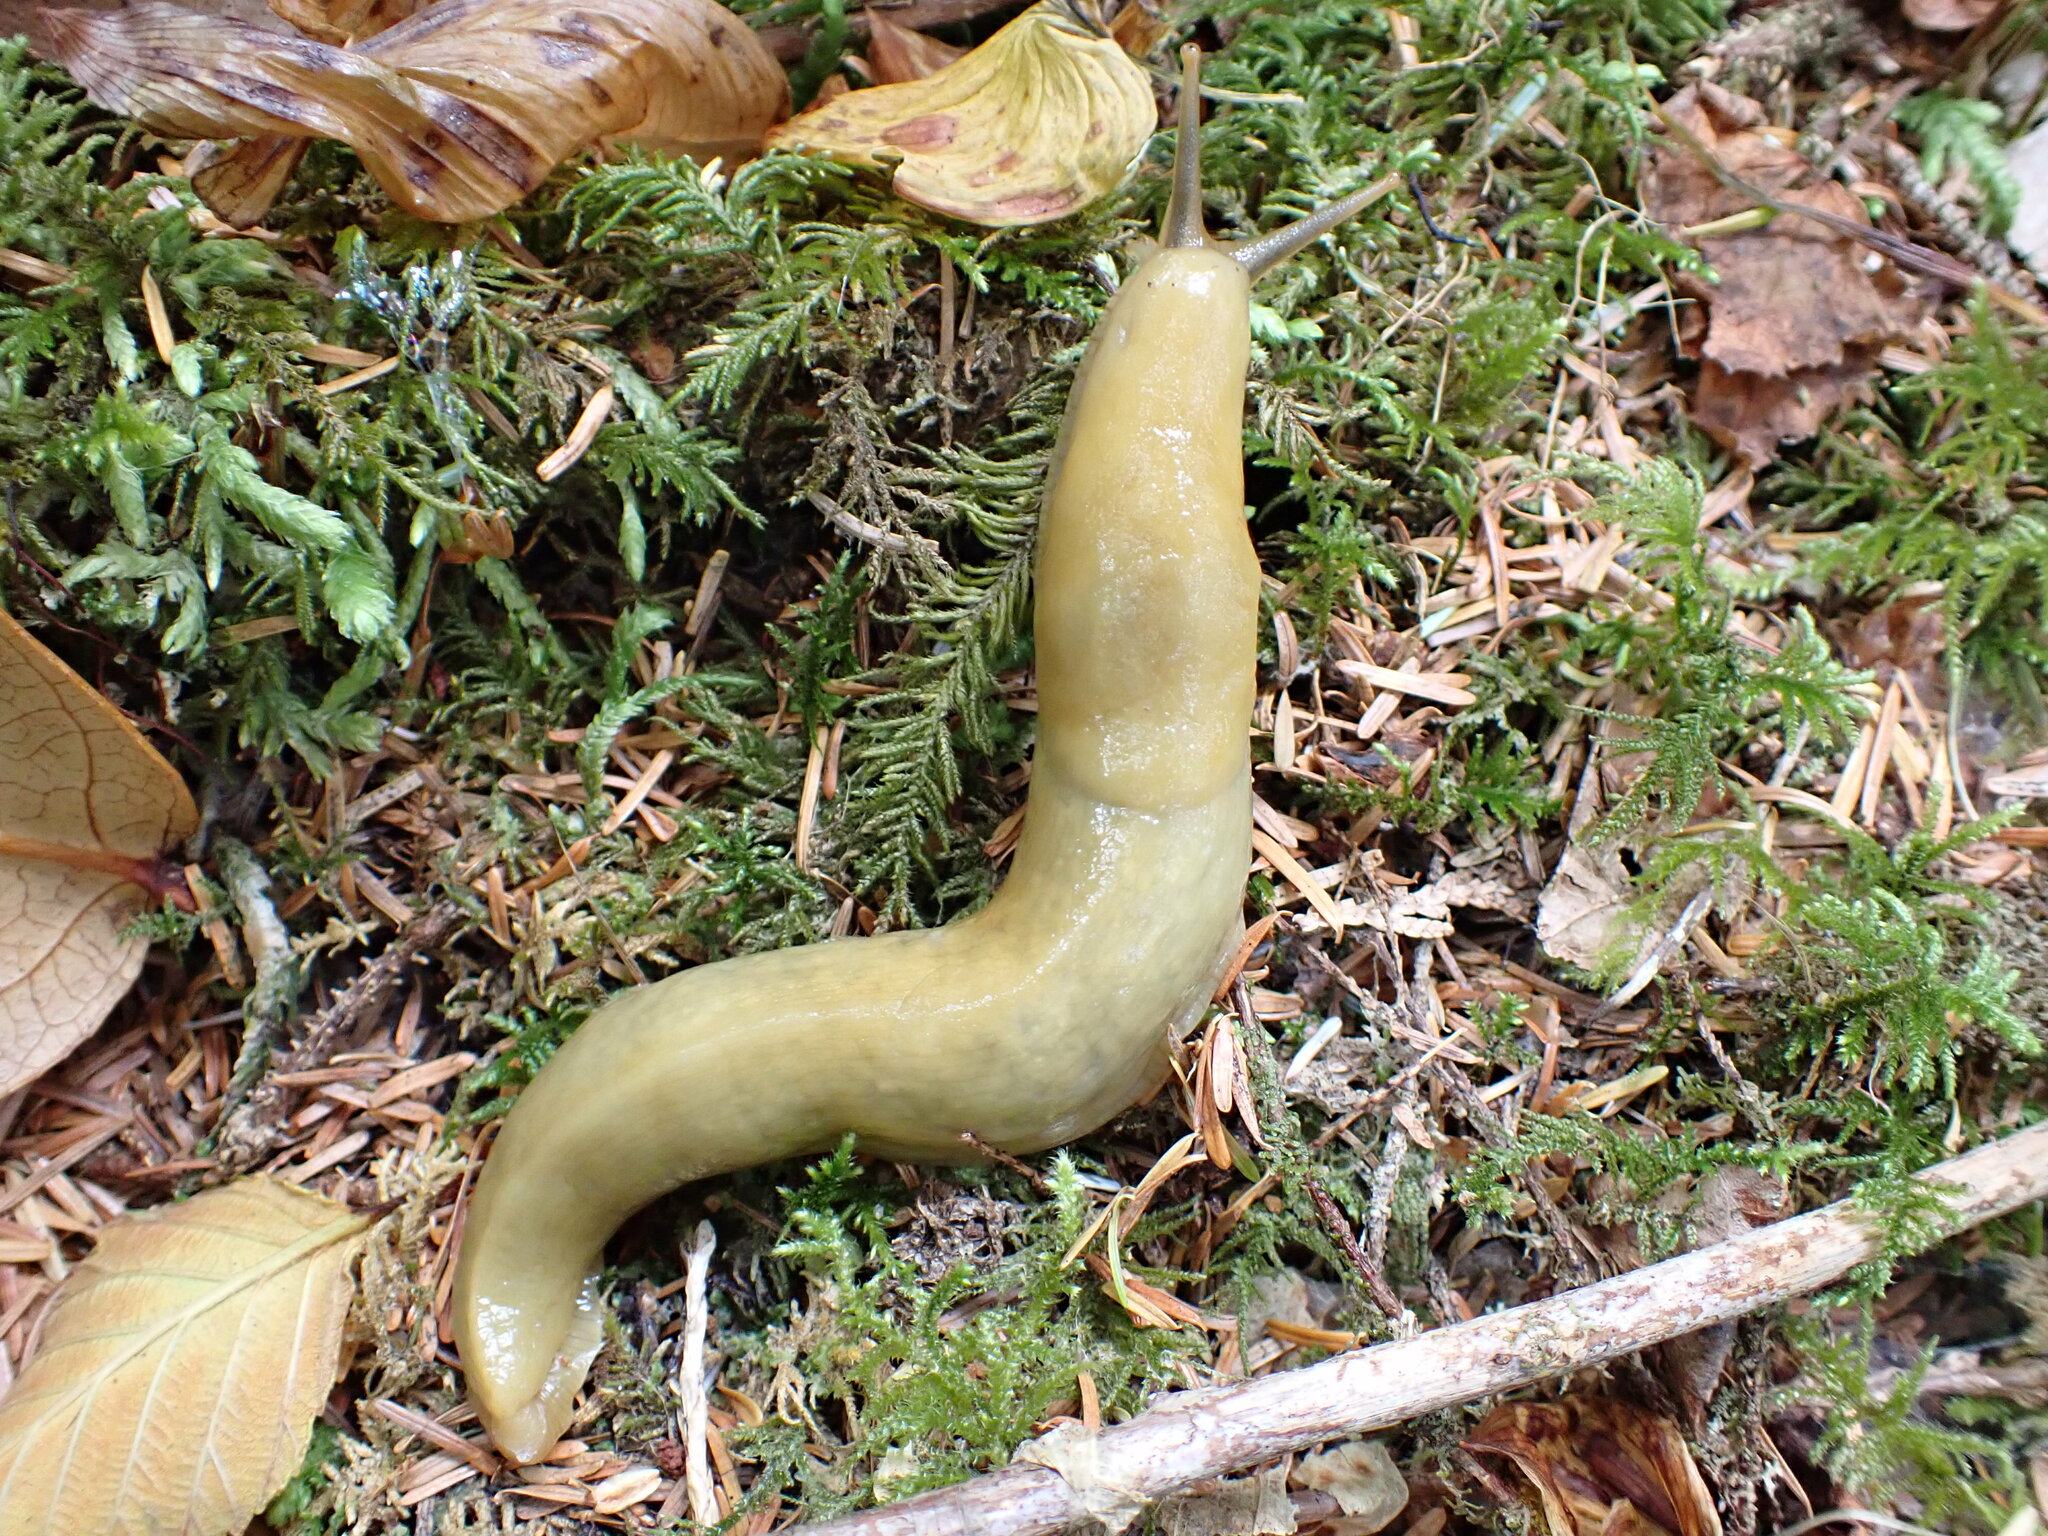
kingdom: Animalia
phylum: Mollusca
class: Gastropoda
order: Stylommatophora
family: Ariolimacidae
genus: Ariolimax
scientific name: Ariolimax columbianus
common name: Pacific banana slug
